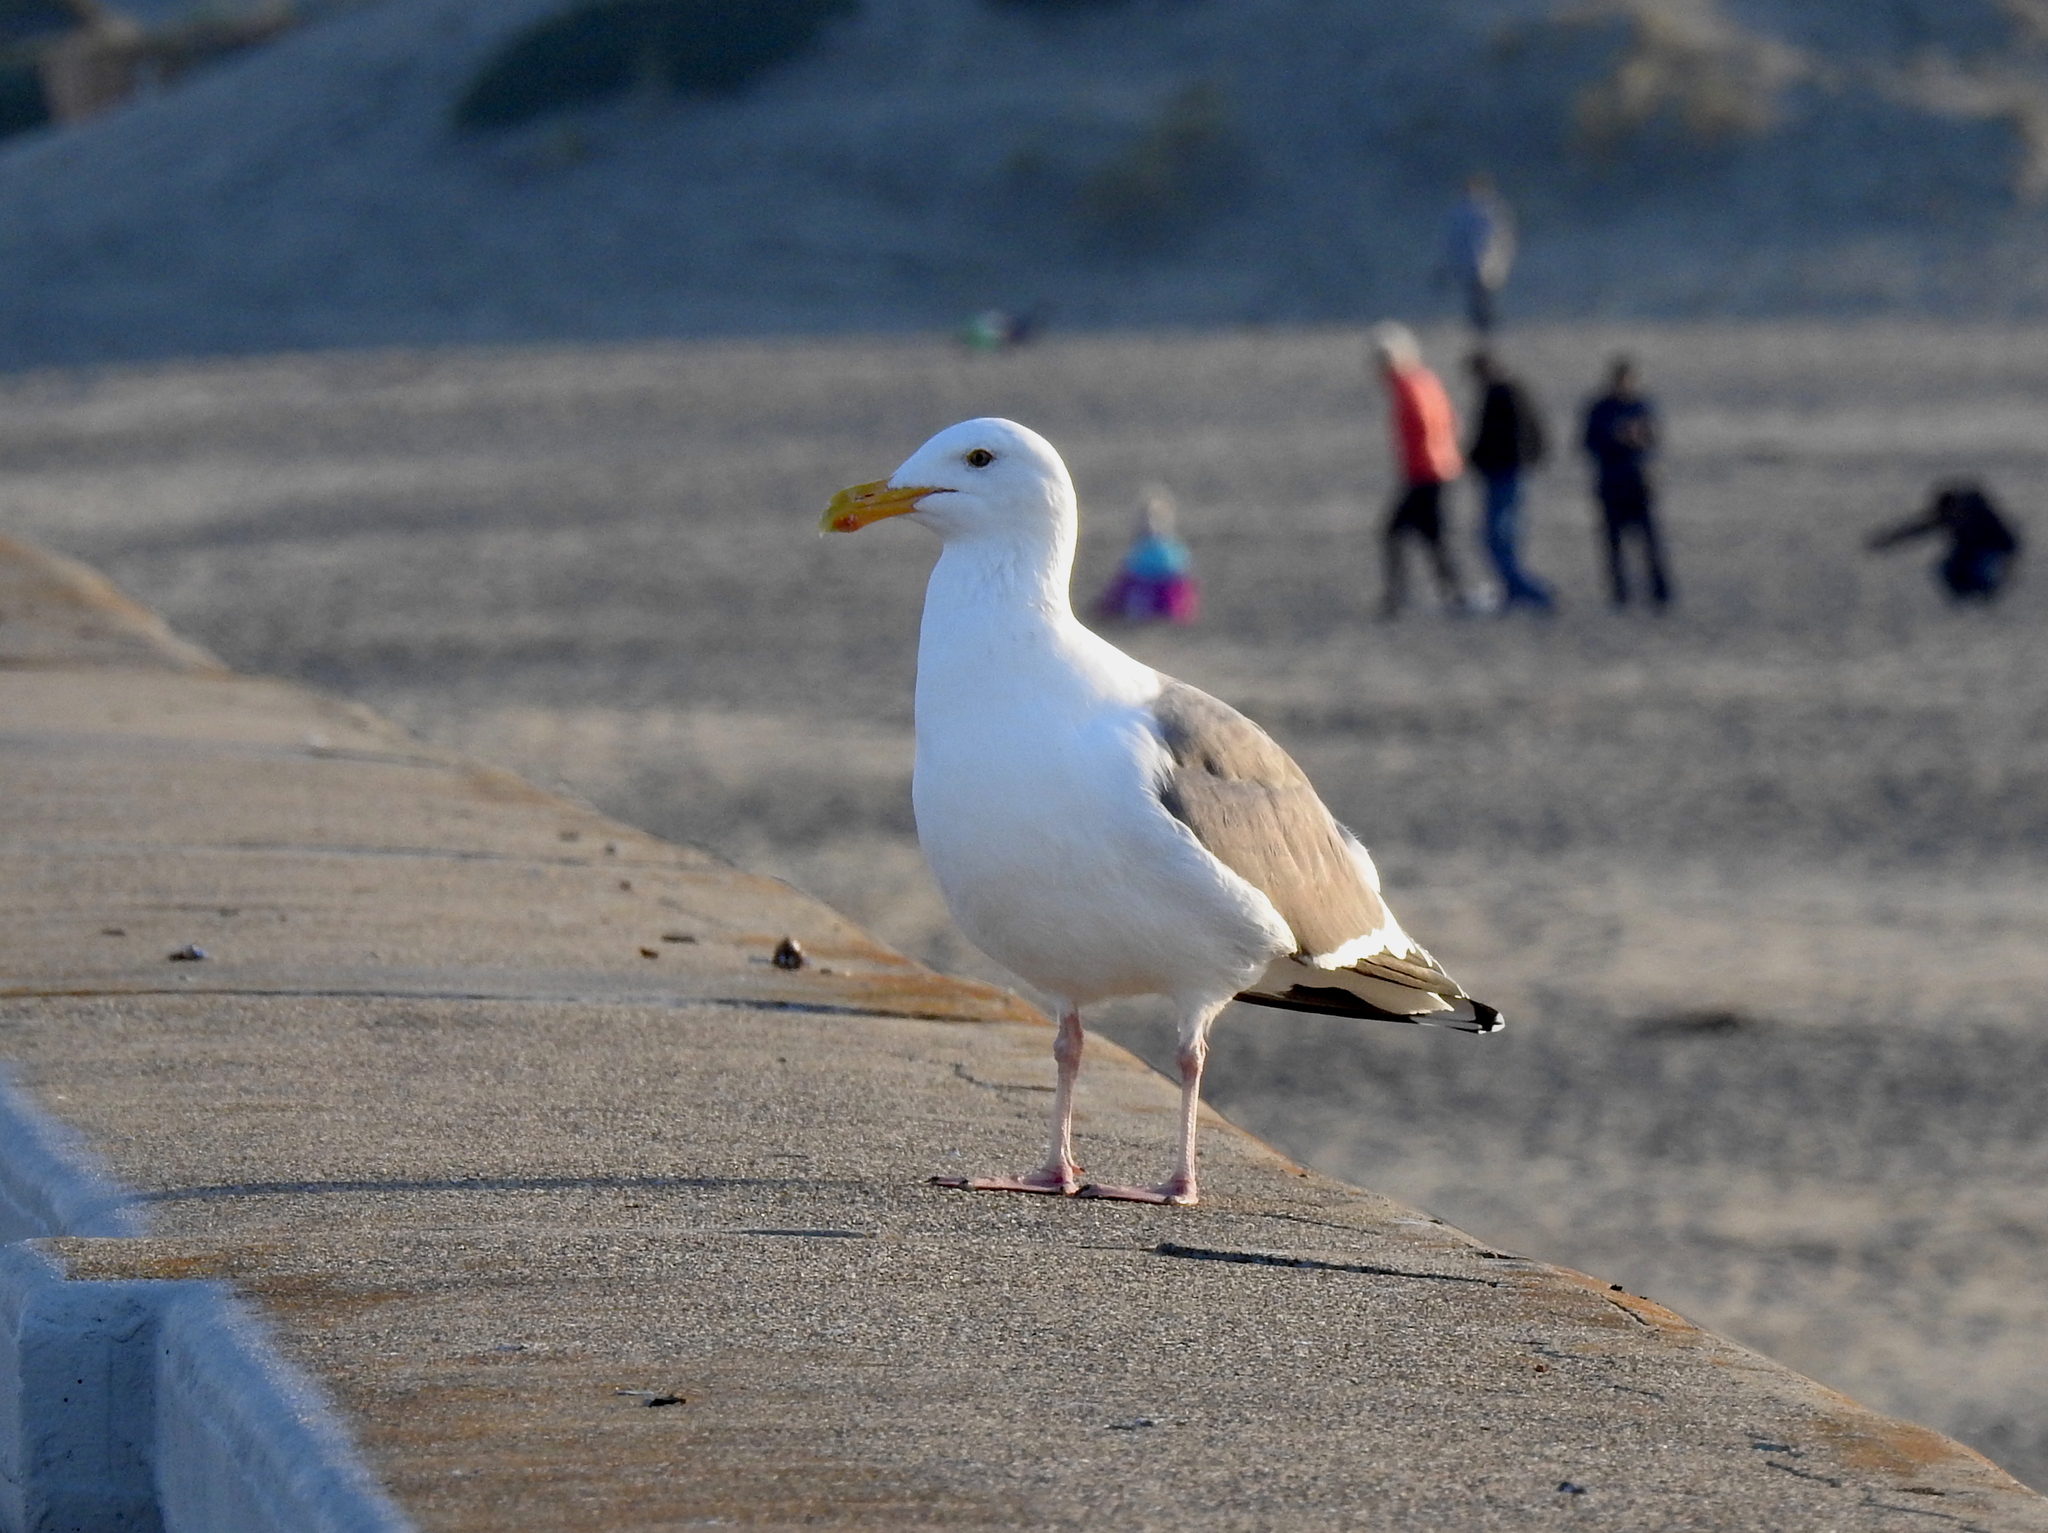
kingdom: Animalia
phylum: Chordata
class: Aves
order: Charadriiformes
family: Laridae
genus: Larus
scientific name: Larus occidentalis
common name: Western gull
